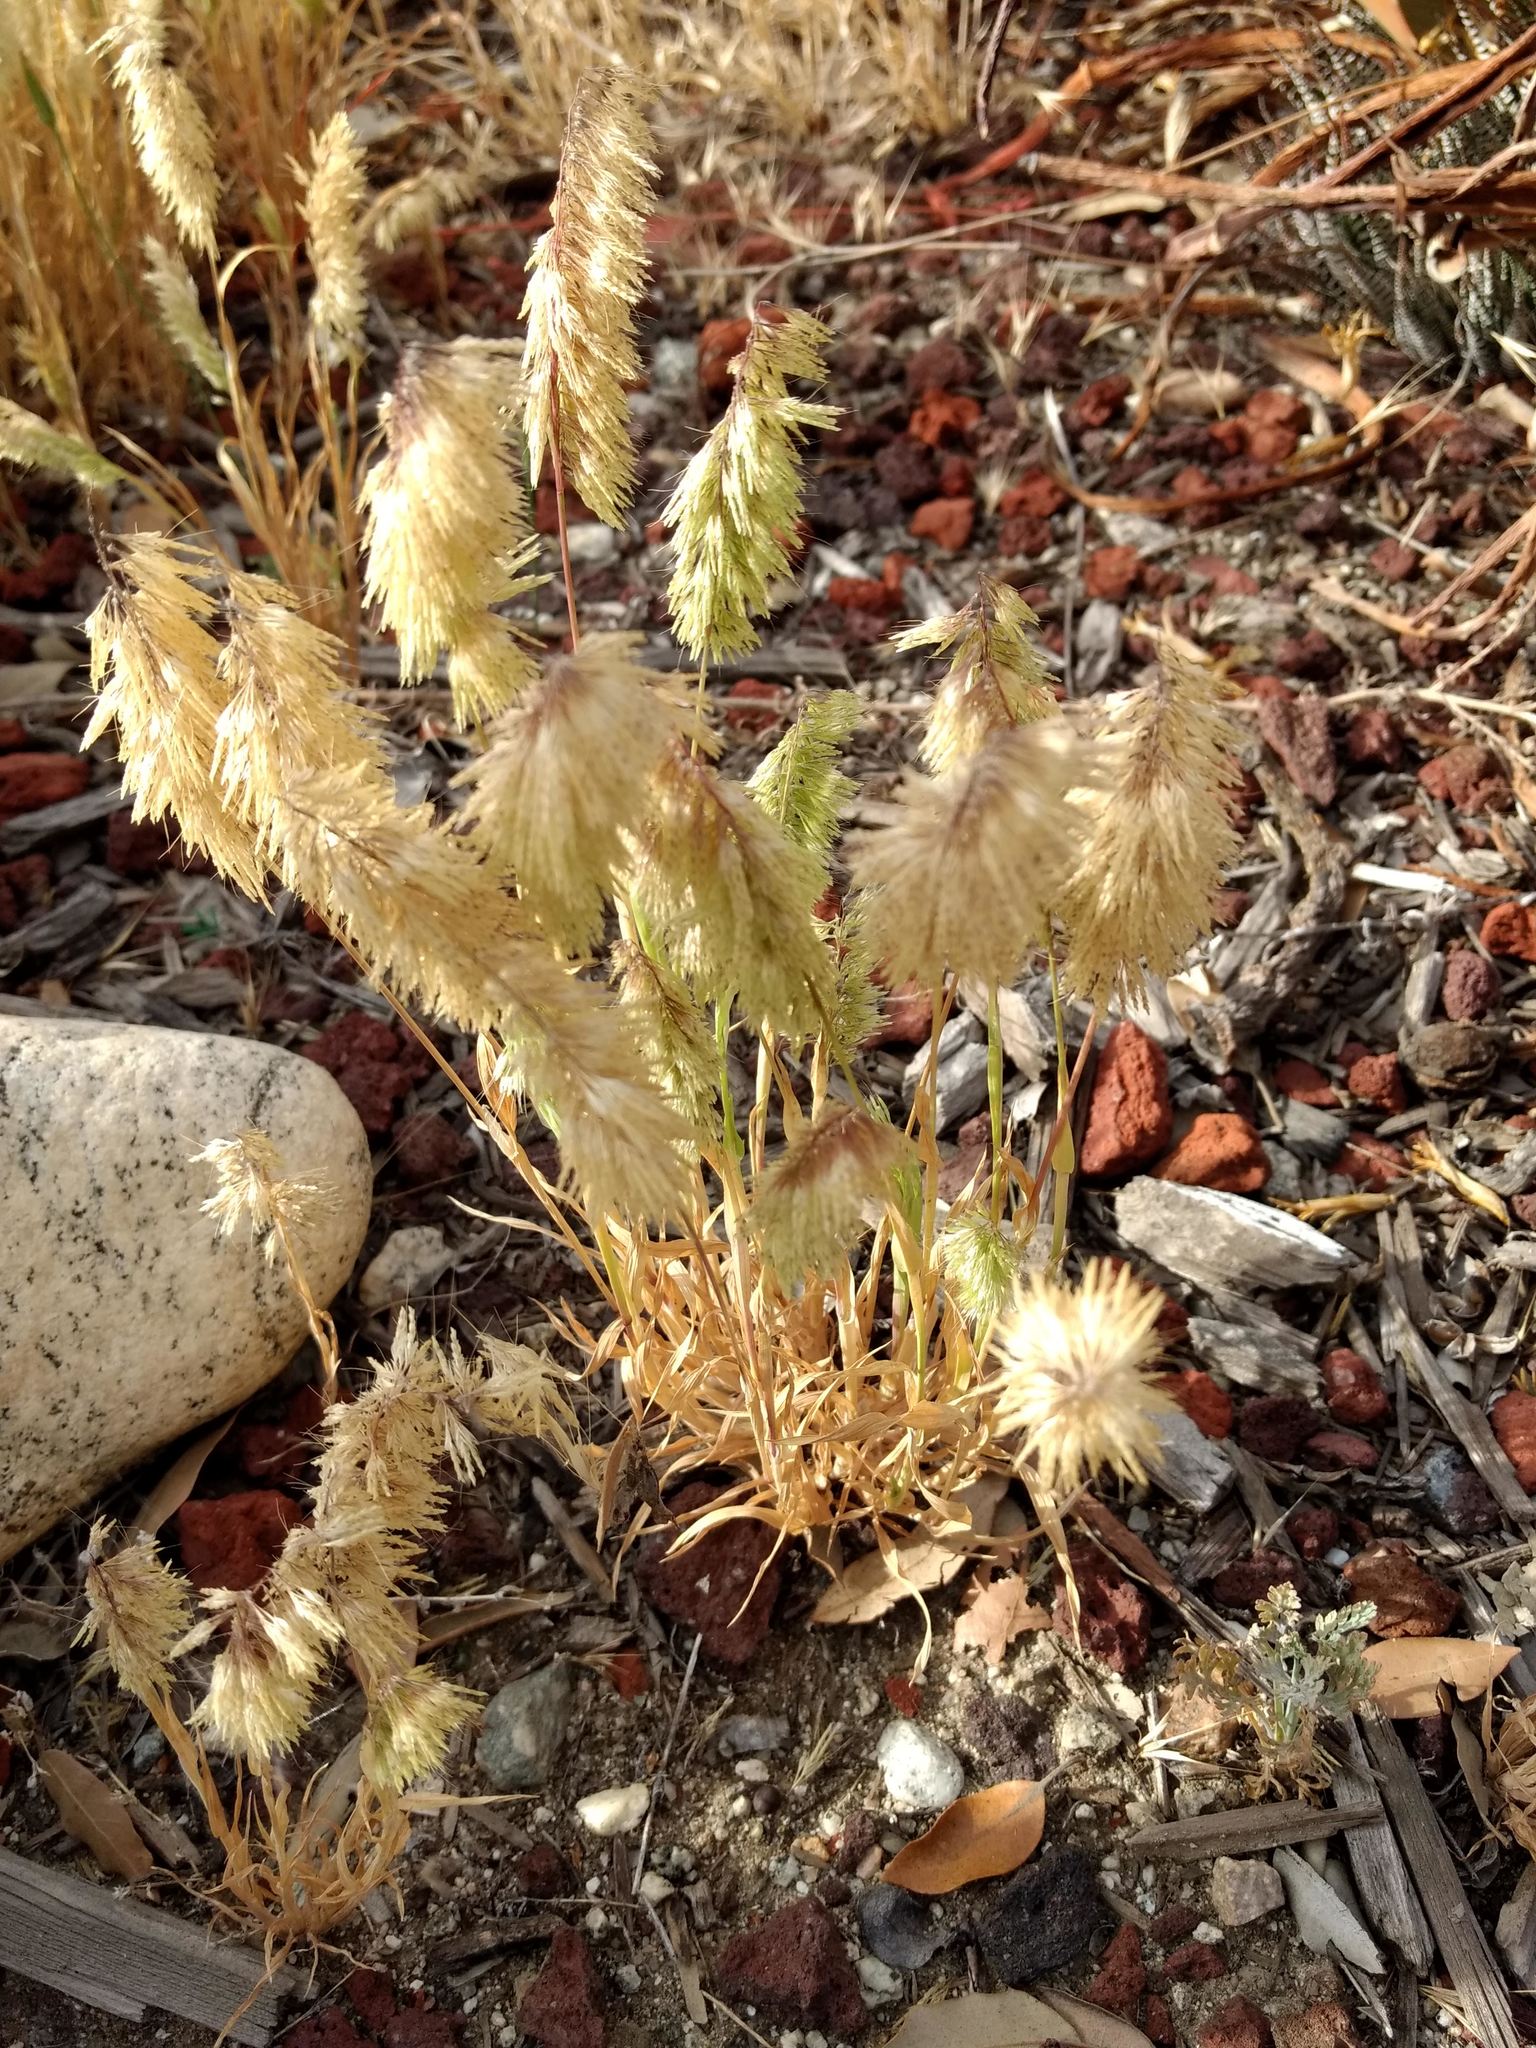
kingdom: Plantae
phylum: Tracheophyta
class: Liliopsida
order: Poales
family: Poaceae
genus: Lamarckia
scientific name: Lamarckia aurea
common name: Golden dog's-tail
